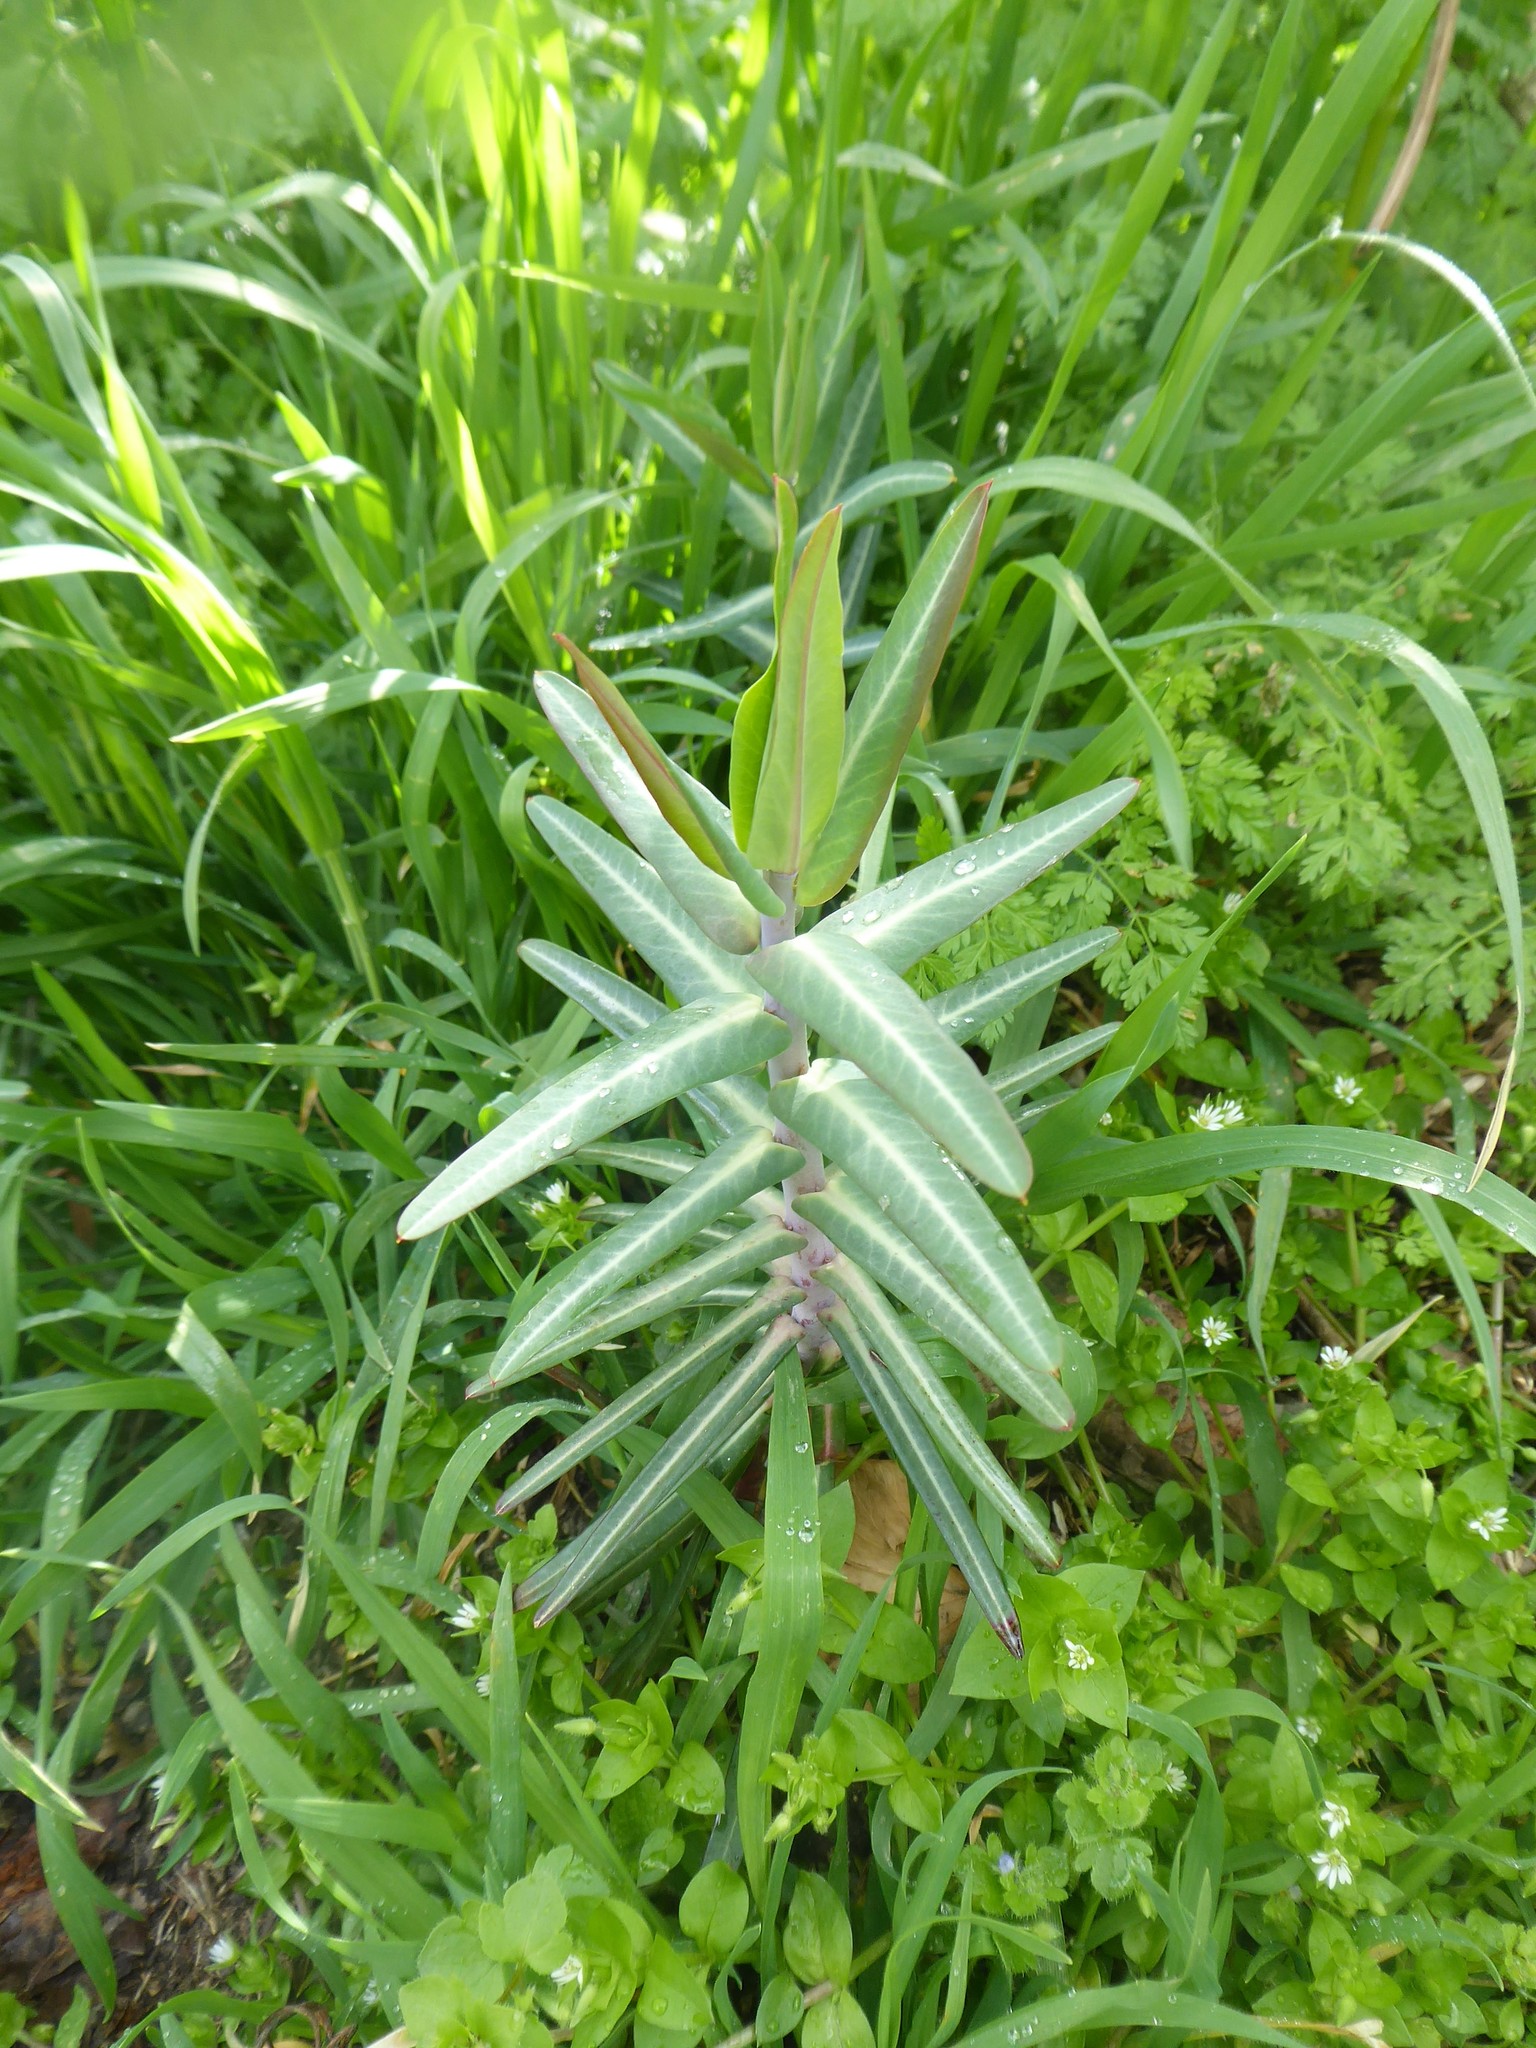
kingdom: Plantae
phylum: Tracheophyta
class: Magnoliopsida
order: Malpighiales
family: Euphorbiaceae
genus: Euphorbia
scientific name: Euphorbia lathyris
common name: Caper spurge
